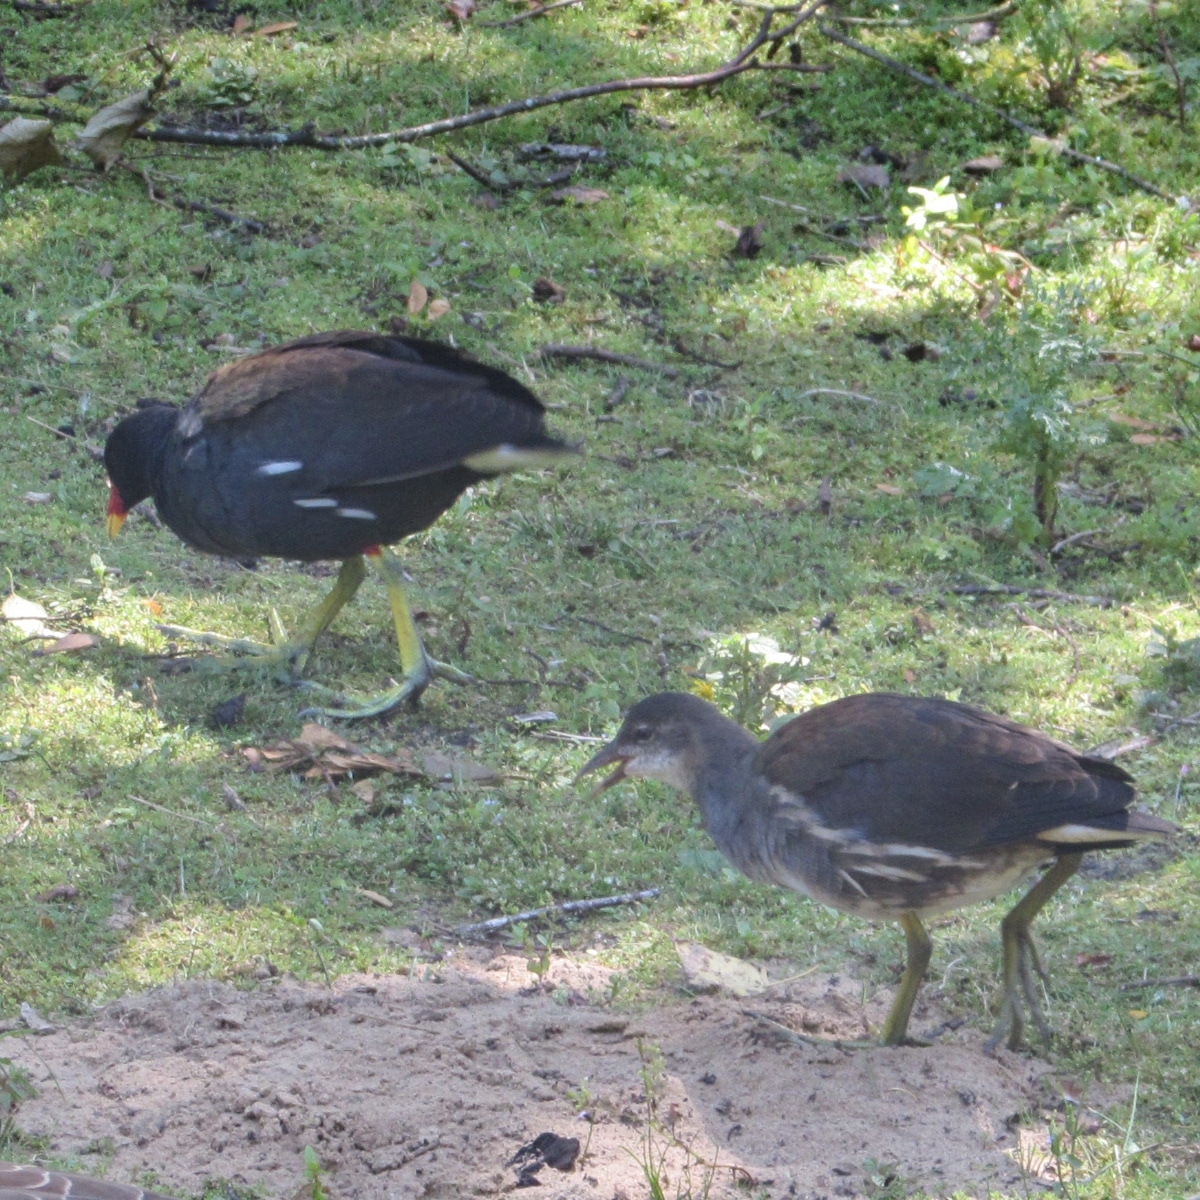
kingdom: Animalia
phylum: Chordata
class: Aves
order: Gruiformes
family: Rallidae
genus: Gallinula
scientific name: Gallinula chloropus
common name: Common moorhen
